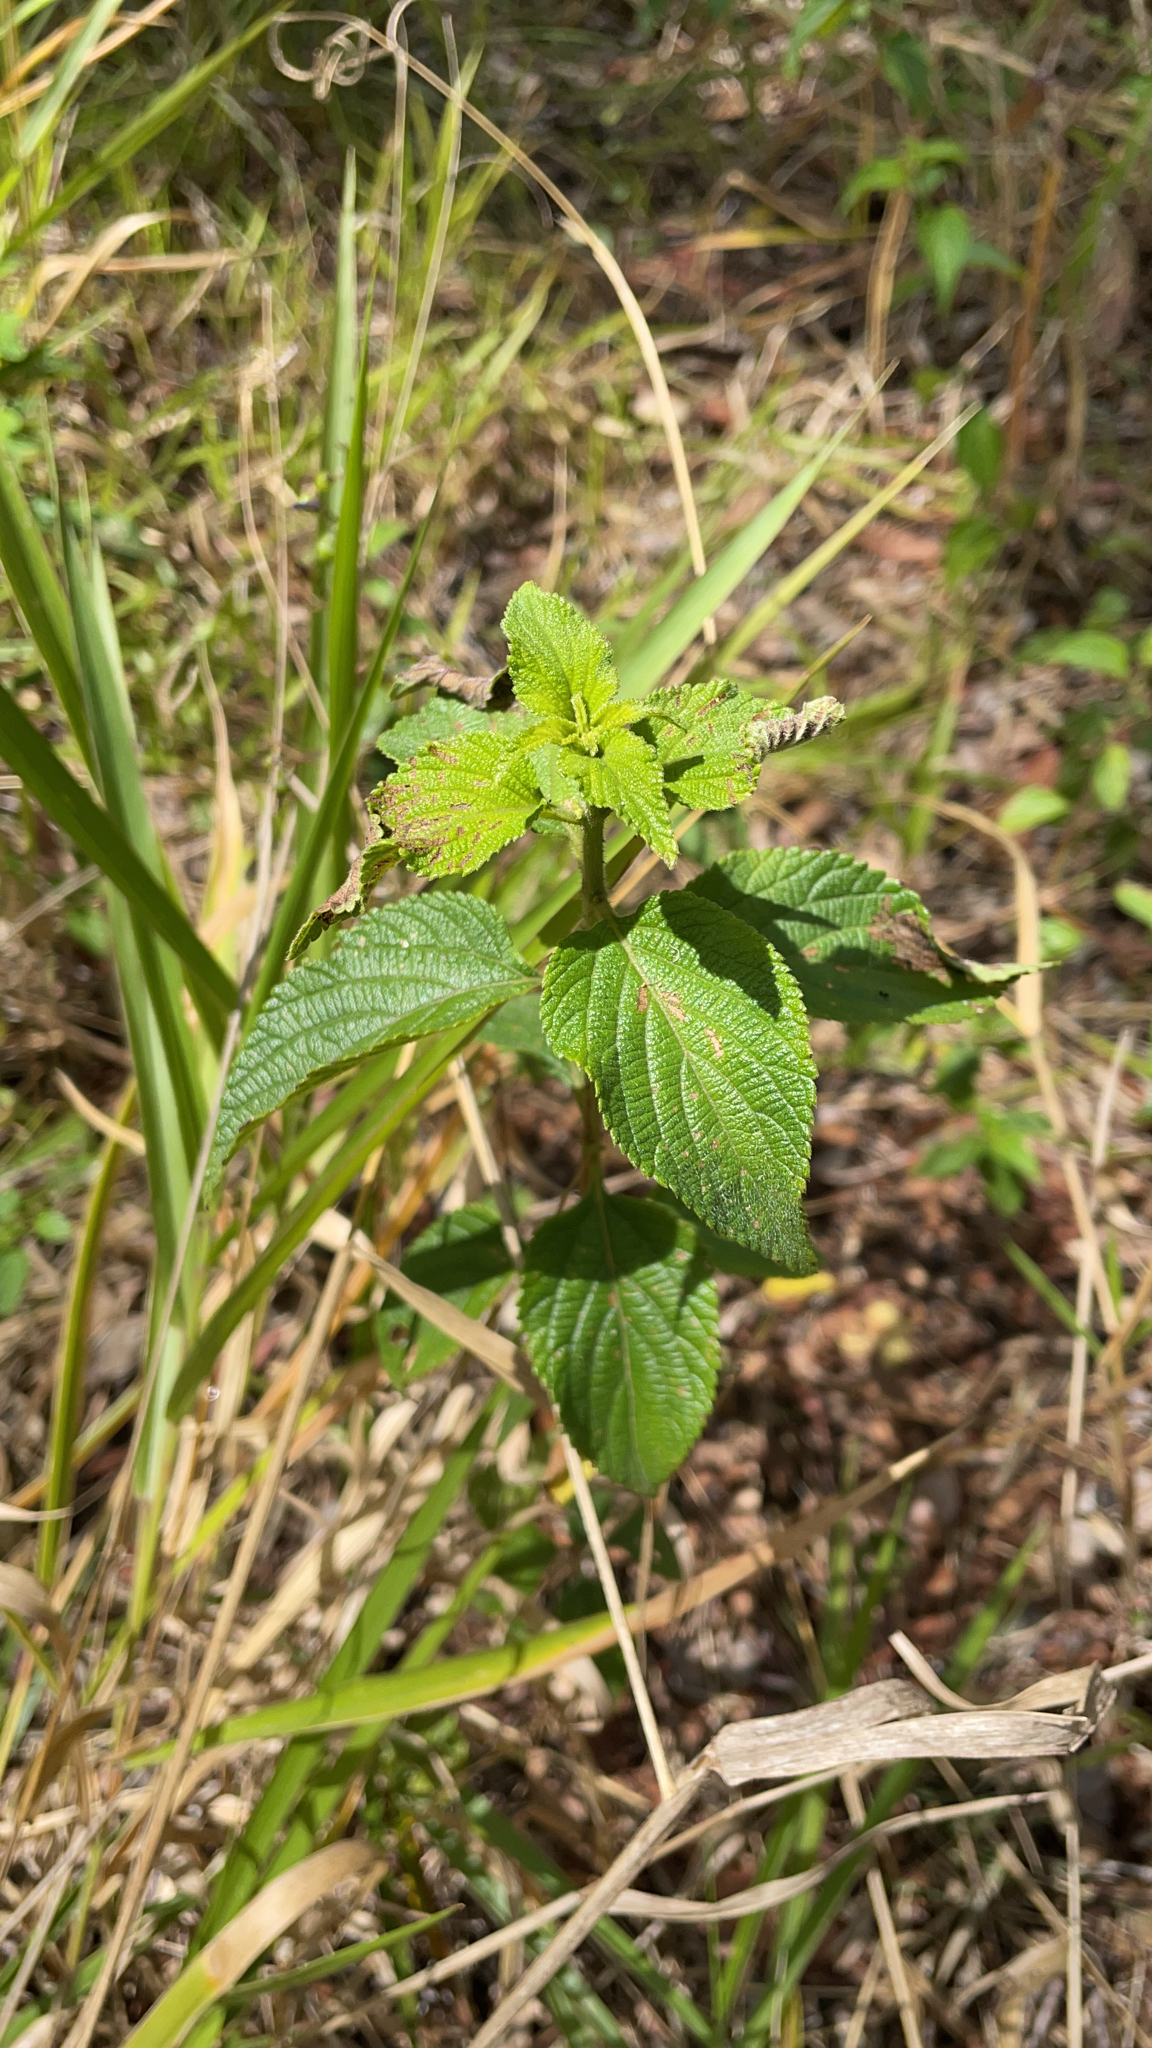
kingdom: Plantae
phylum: Tracheophyta
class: Magnoliopsida
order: Lamiales
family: Verbenaceae
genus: Lantana
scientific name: Lantana camara
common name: Lantana
